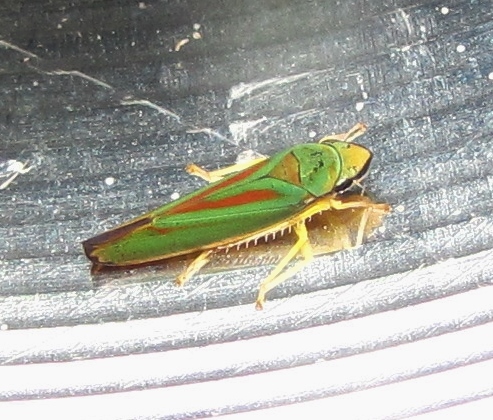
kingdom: Animalia
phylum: Arthropoda
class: Insecta
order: Hemiptera
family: Cicadellidae
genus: Graphocephala
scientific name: Graphocephala fennahi
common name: Rhododendron leafhopper
